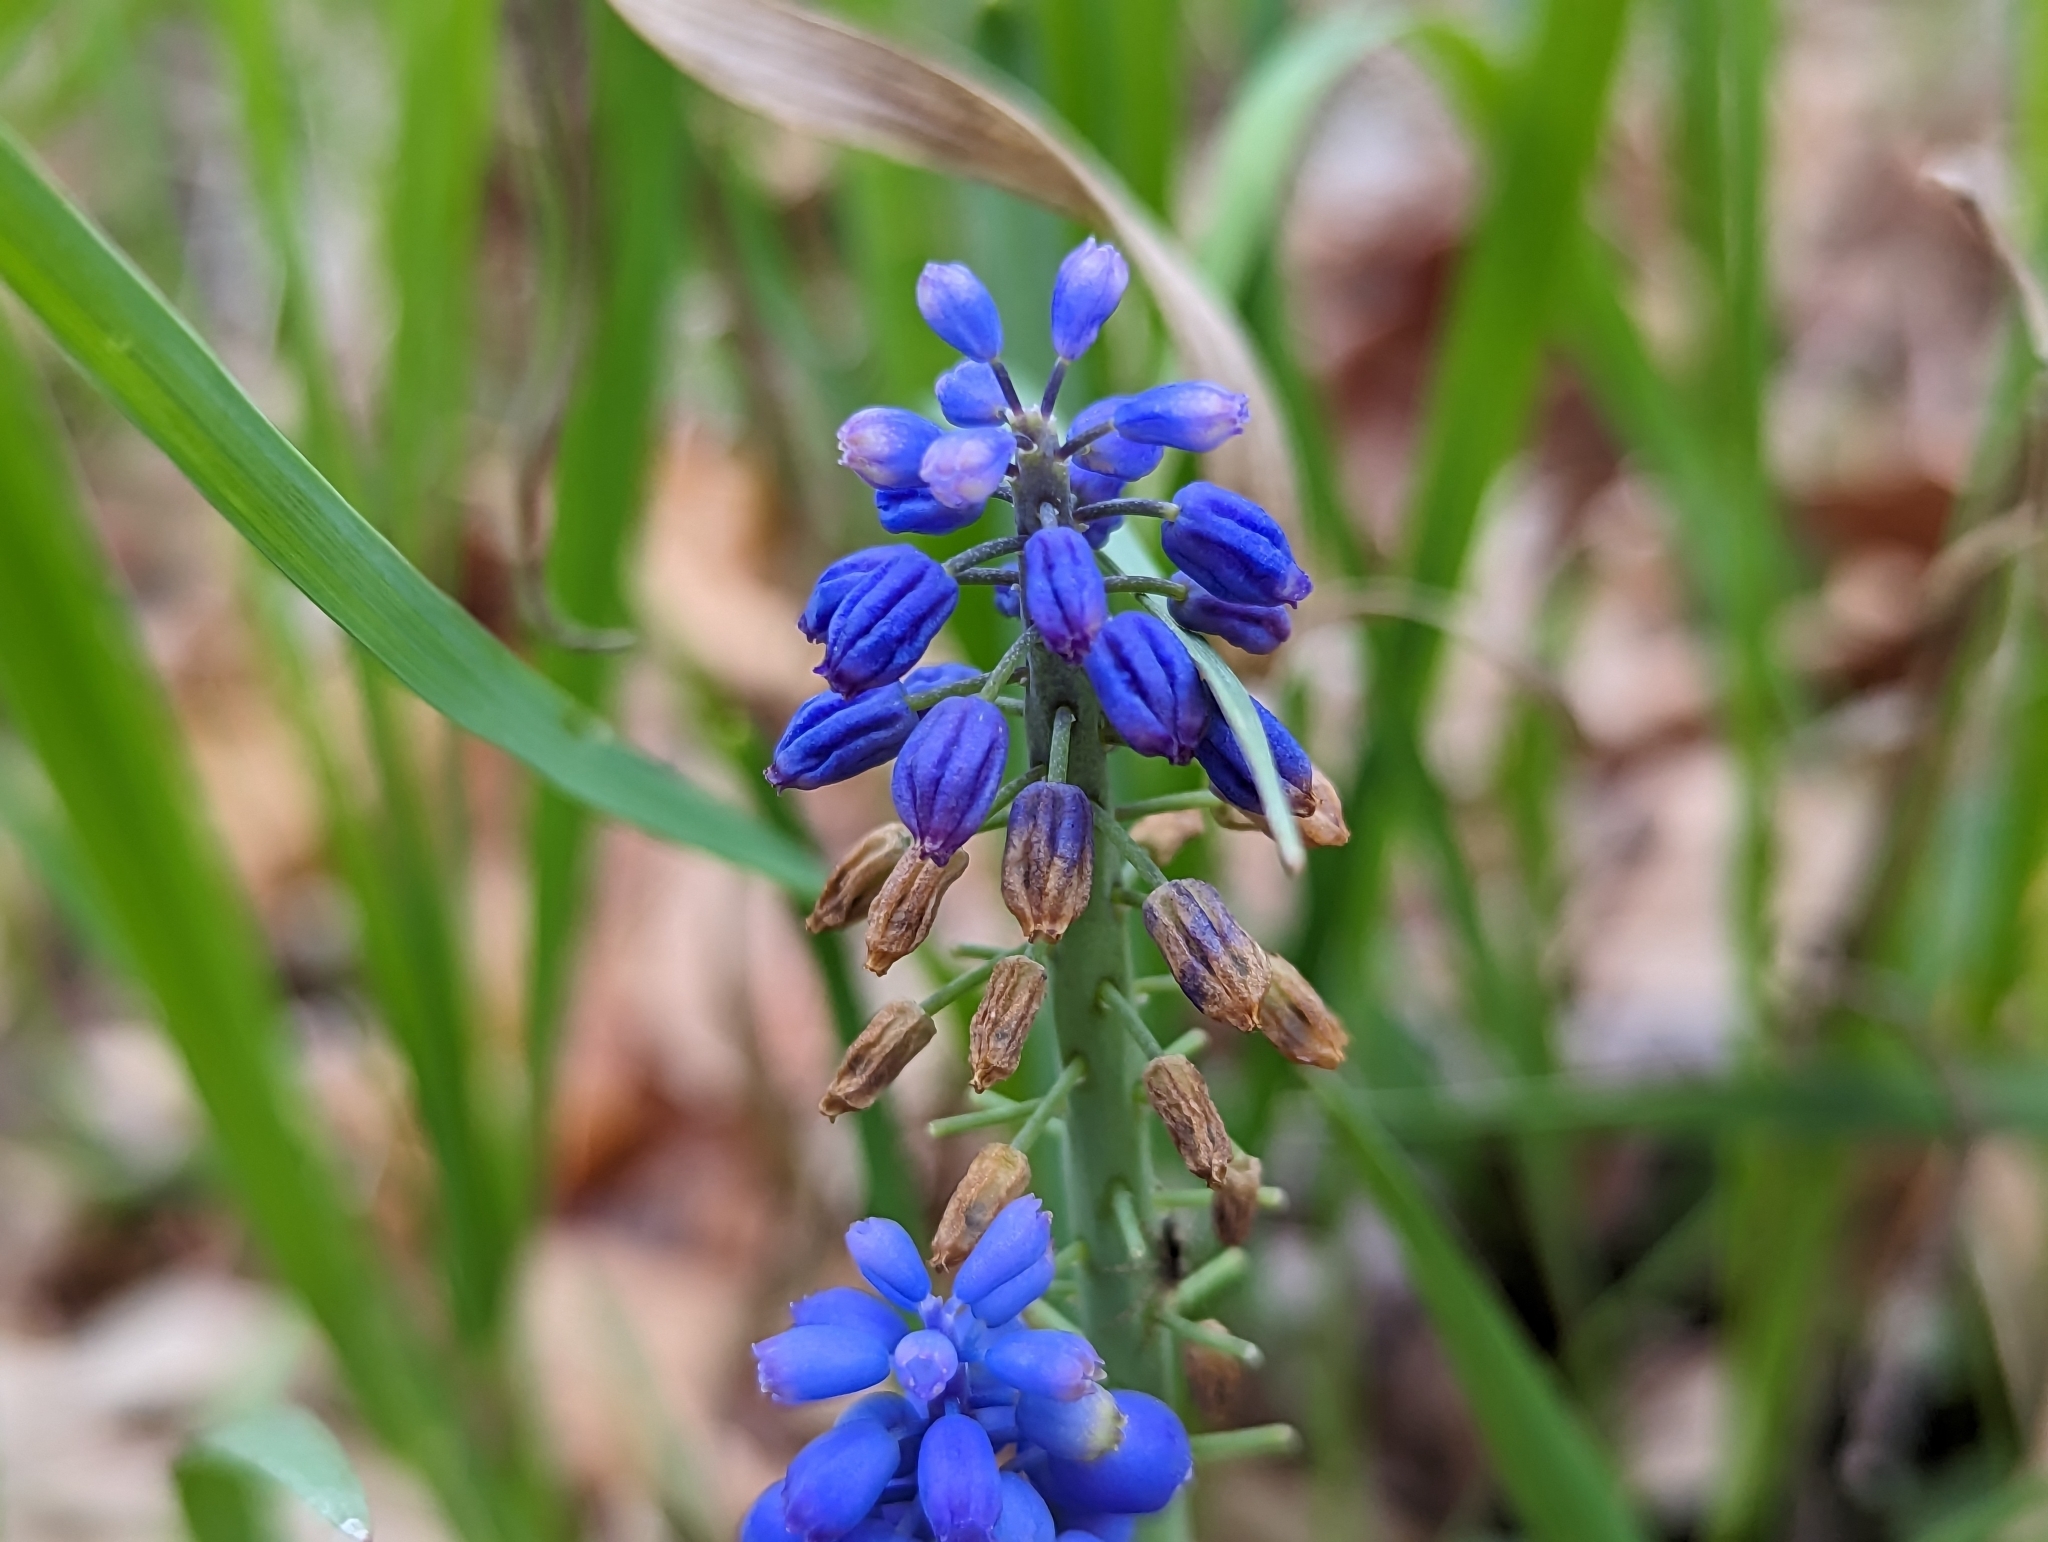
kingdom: Plantae
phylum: Tracheophyta
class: Liliopsida
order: Asparagales
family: Asparagaceae
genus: Muscari
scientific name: Muscari botryoides
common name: Compact grape-hyacinth
